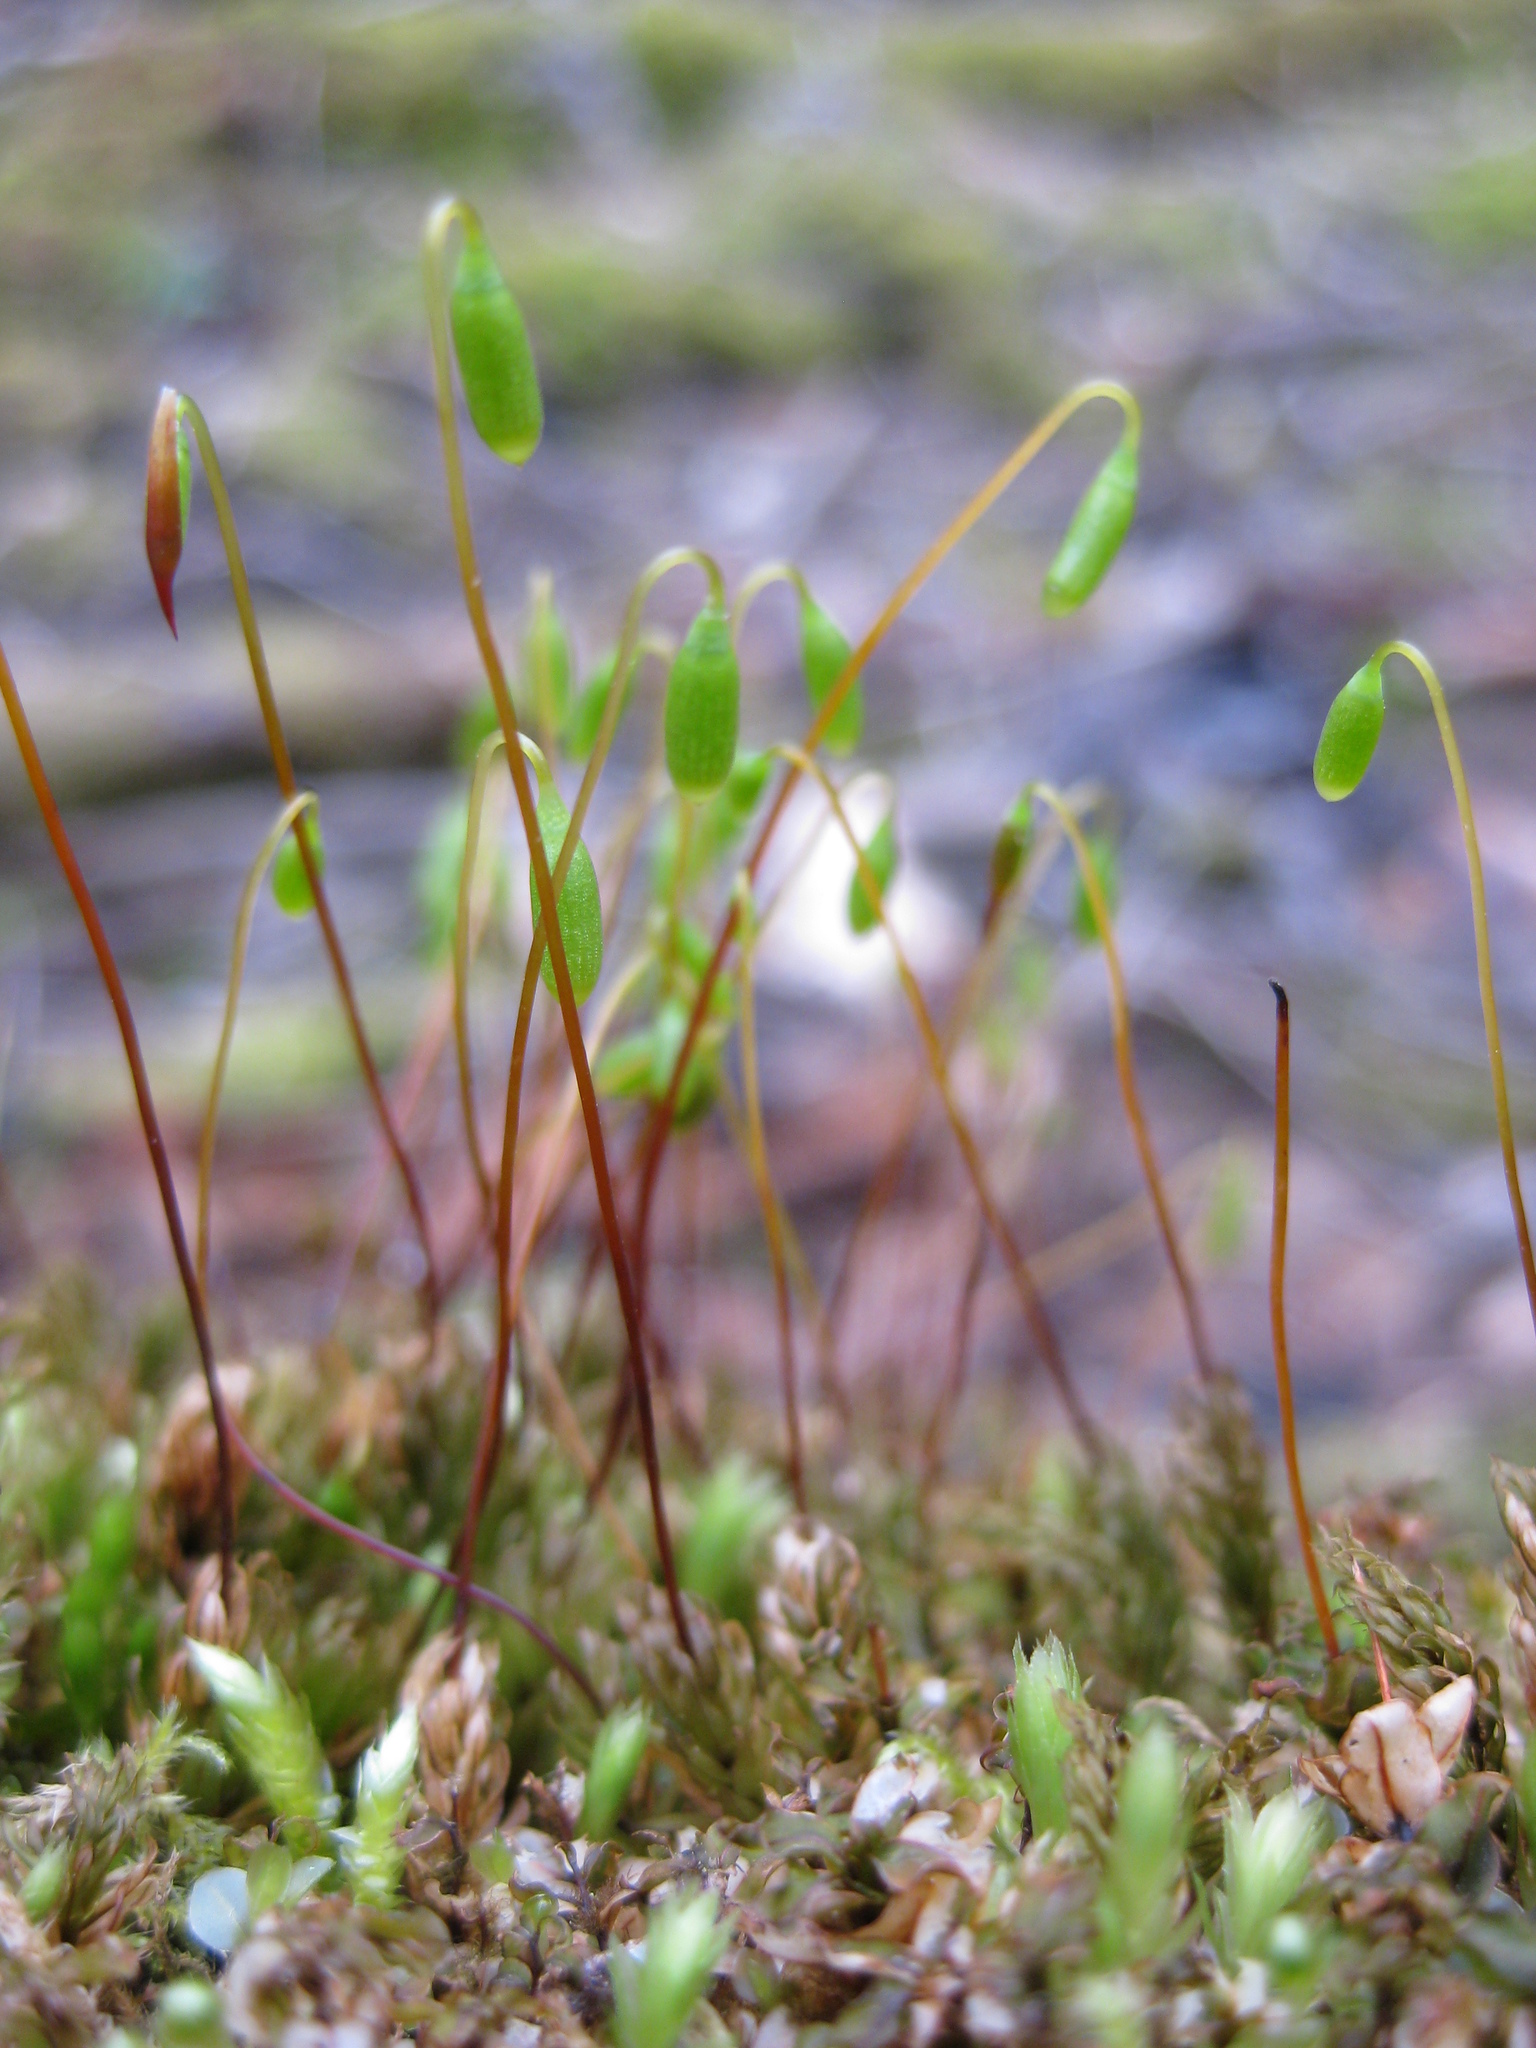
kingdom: Plantae
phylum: Bryophyta
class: Bryopsida
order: Bryales
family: Mniaceae
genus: Mnium
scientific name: Mnium hornum
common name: Swan's-neck leafy moss
